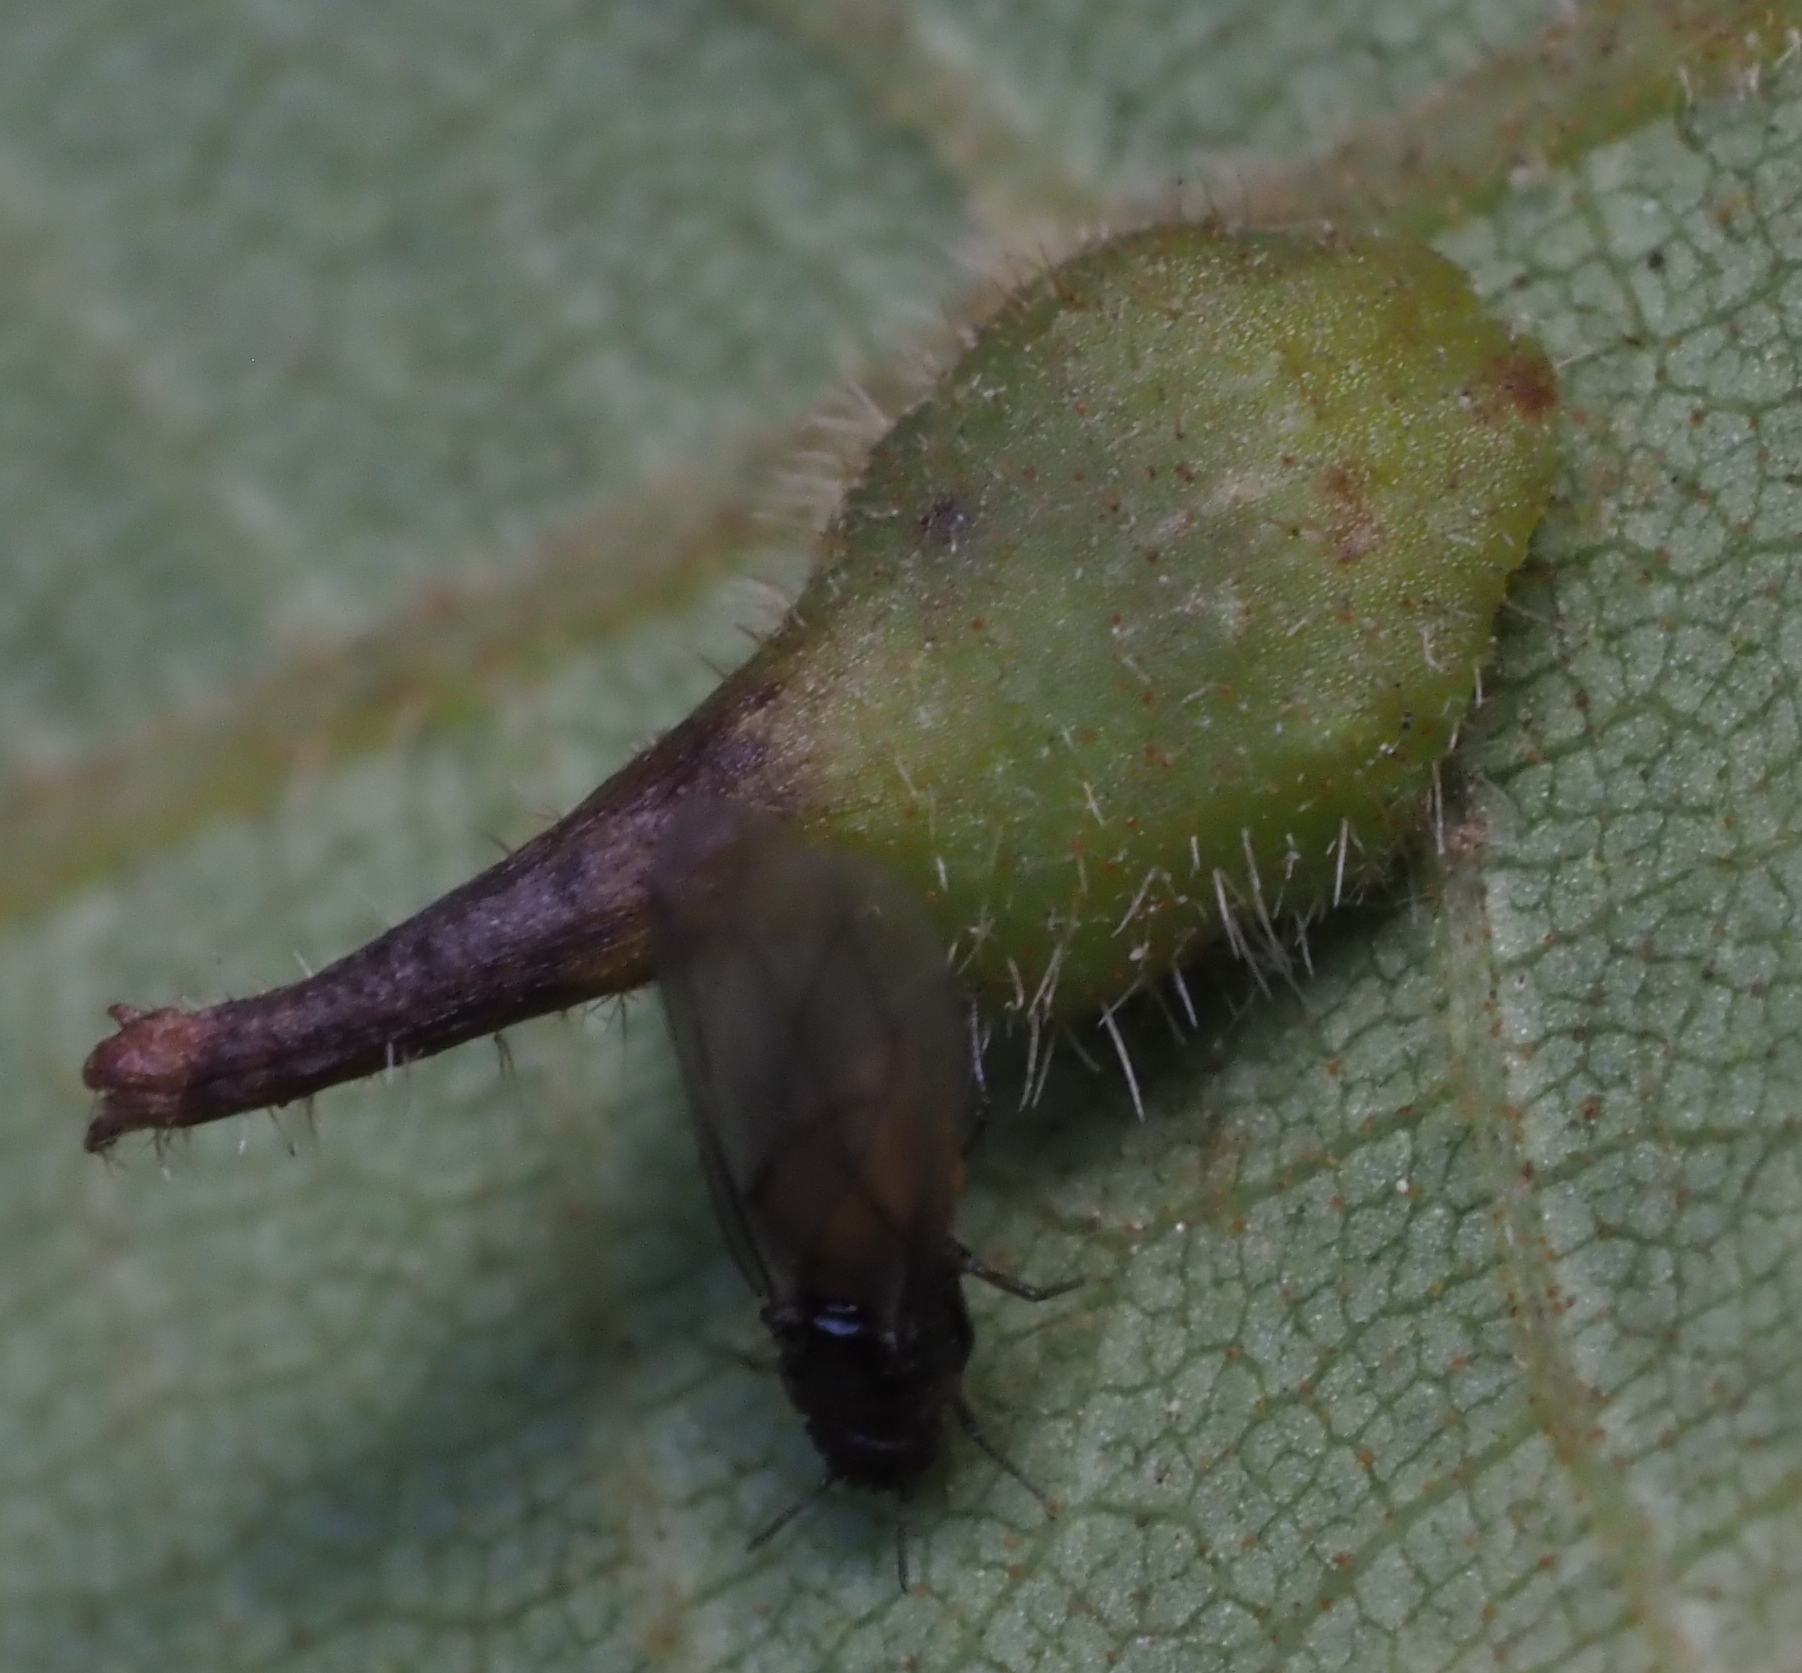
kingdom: Animalia
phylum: Arthropoda
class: Insecta
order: Diptera
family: Cecidomyiidae
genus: Caryomyia
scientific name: Caryomyia inclinata
